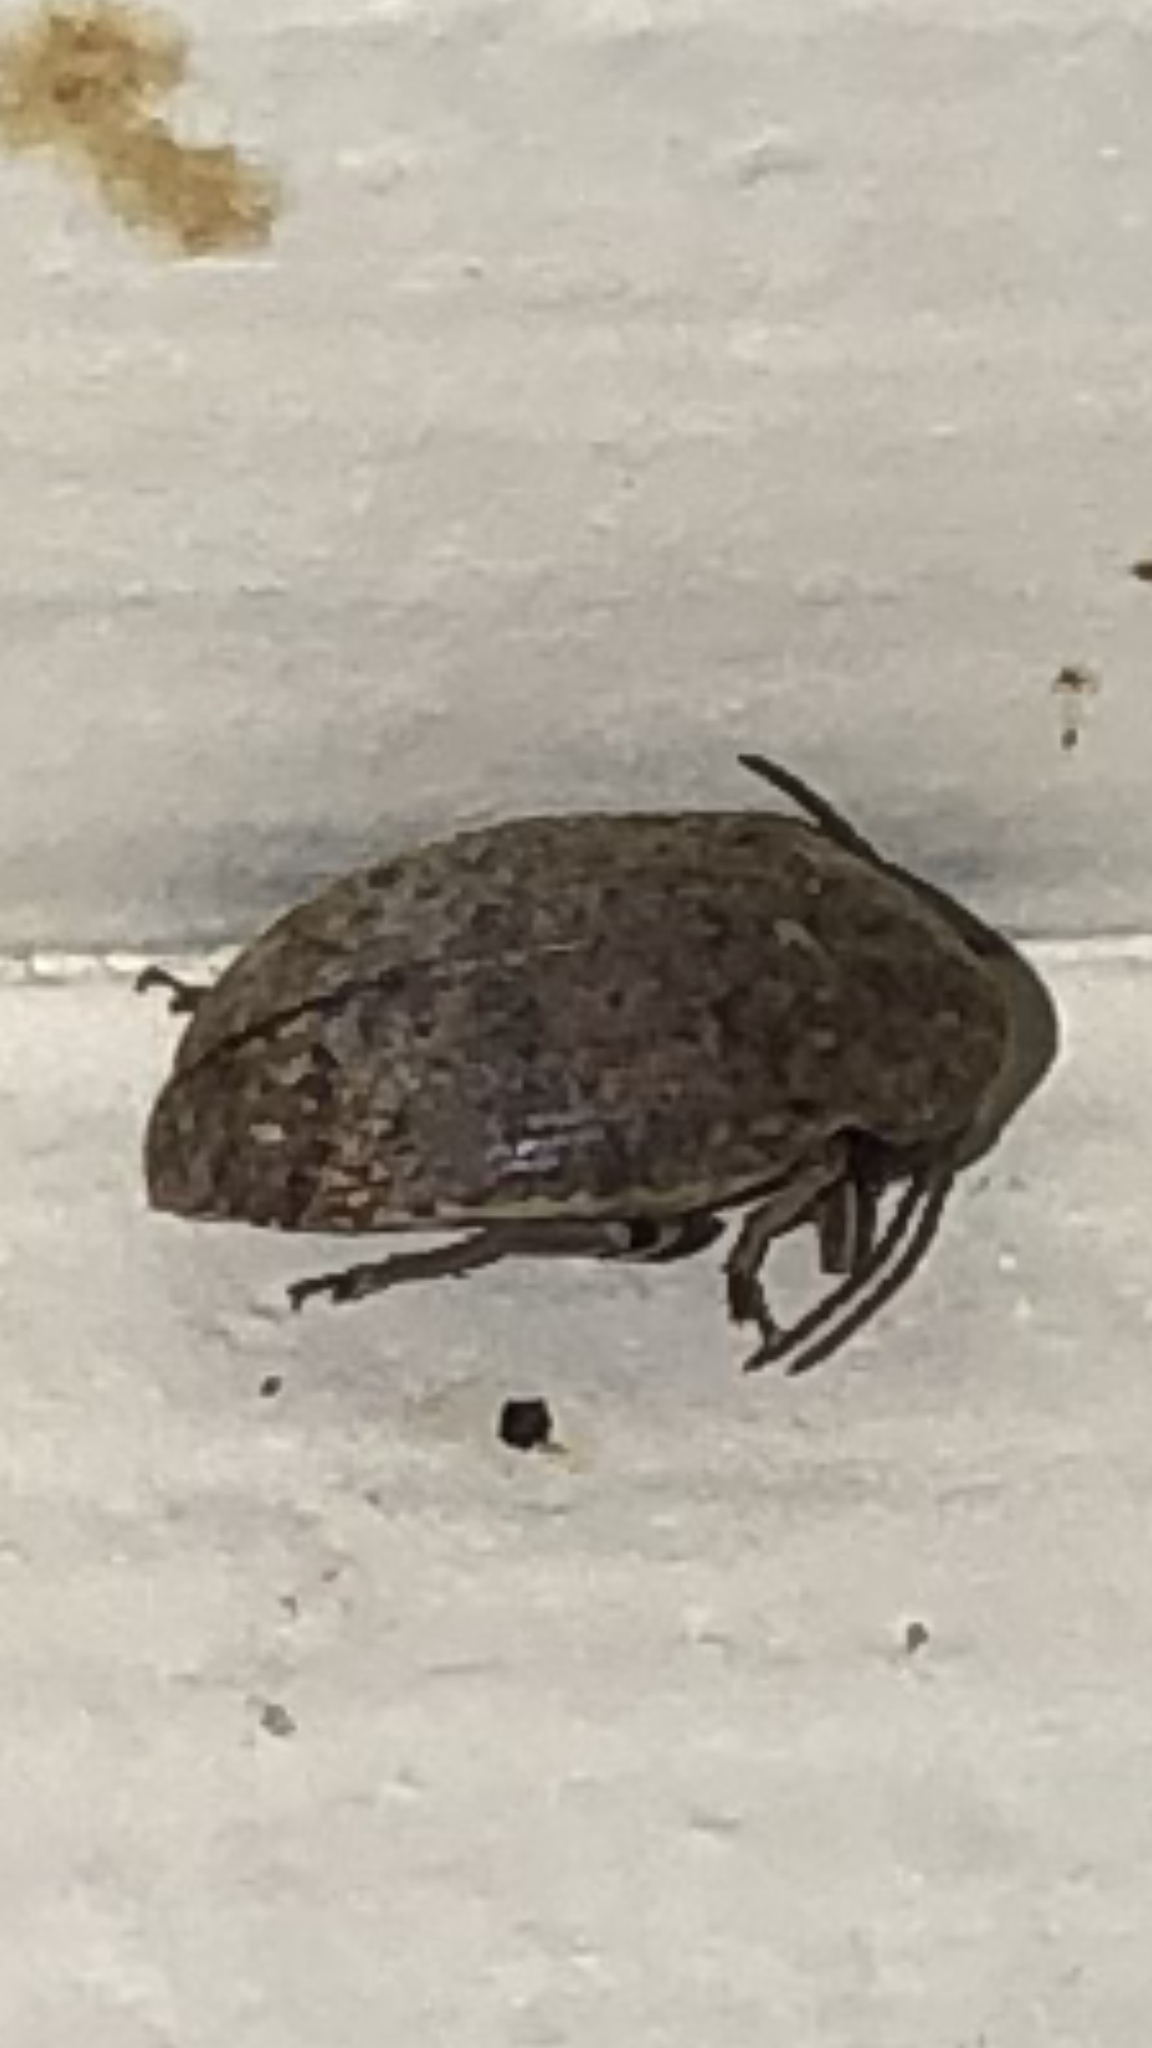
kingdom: Animalia
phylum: Arthropoda
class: Insecta
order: Coleoptera
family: Chrysomelidae
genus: Amblycerus
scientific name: Amblycerus robiniae
